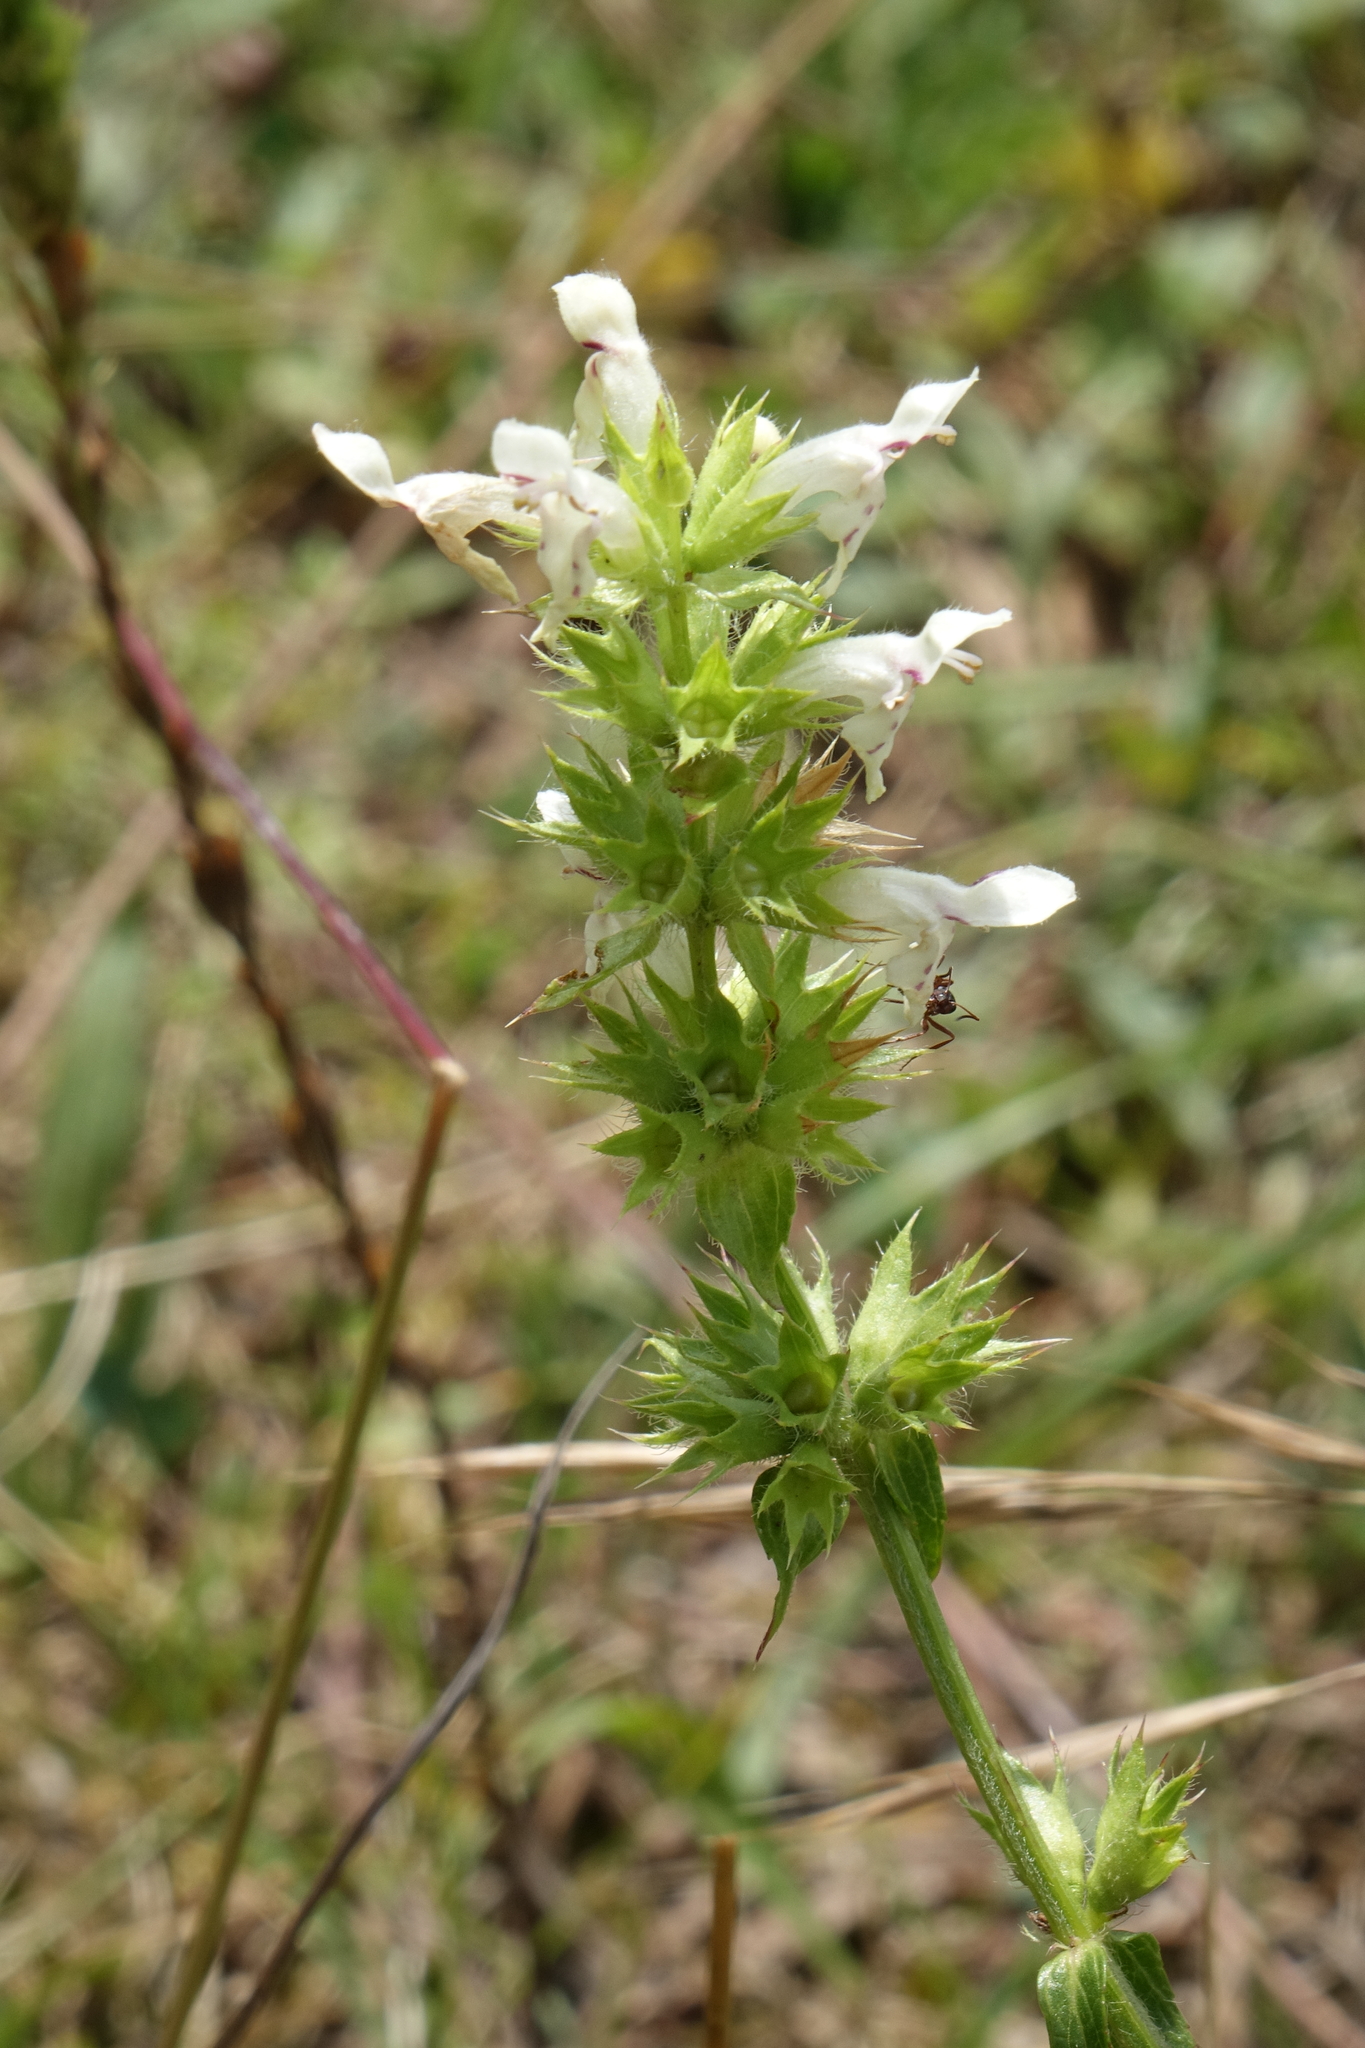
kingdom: Plantae
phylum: Tracheophyta
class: Magnoliopsida
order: Lamiales
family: Lamiaceae
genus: Stachys
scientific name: Stachys atherocalyx
